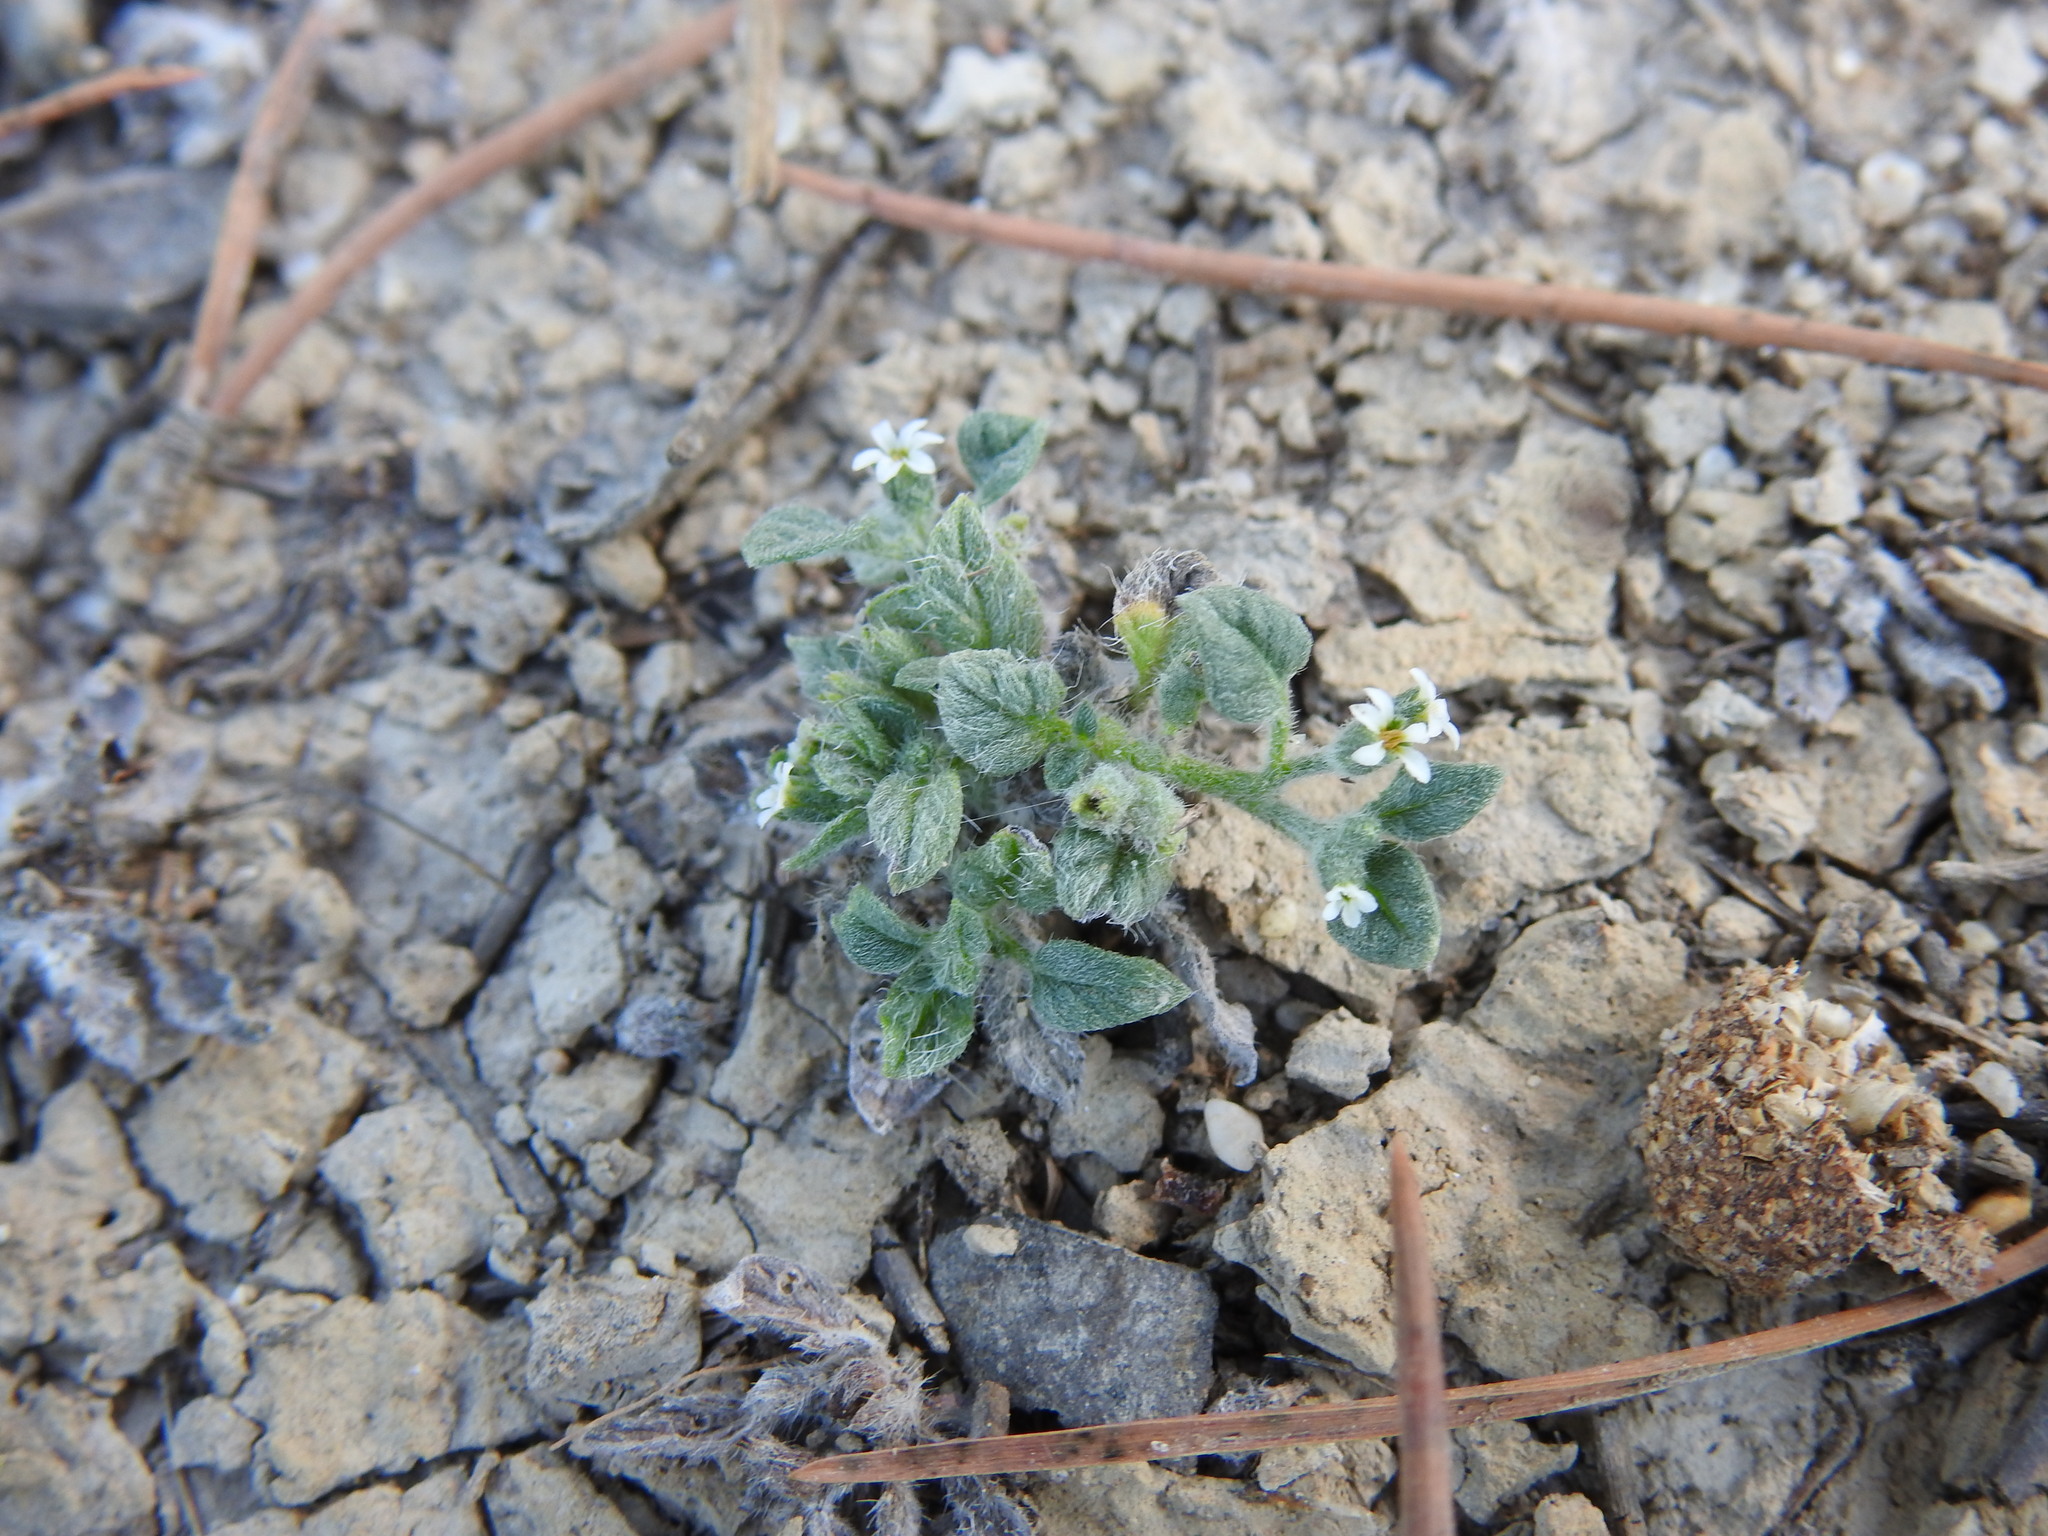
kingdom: Plantae
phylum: Tracheophyta
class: Magnoliopsida
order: Boraginales
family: Heliotropiaceae
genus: Heliotropium
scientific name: Heliotropium supinum
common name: Dwarf heliotrope
